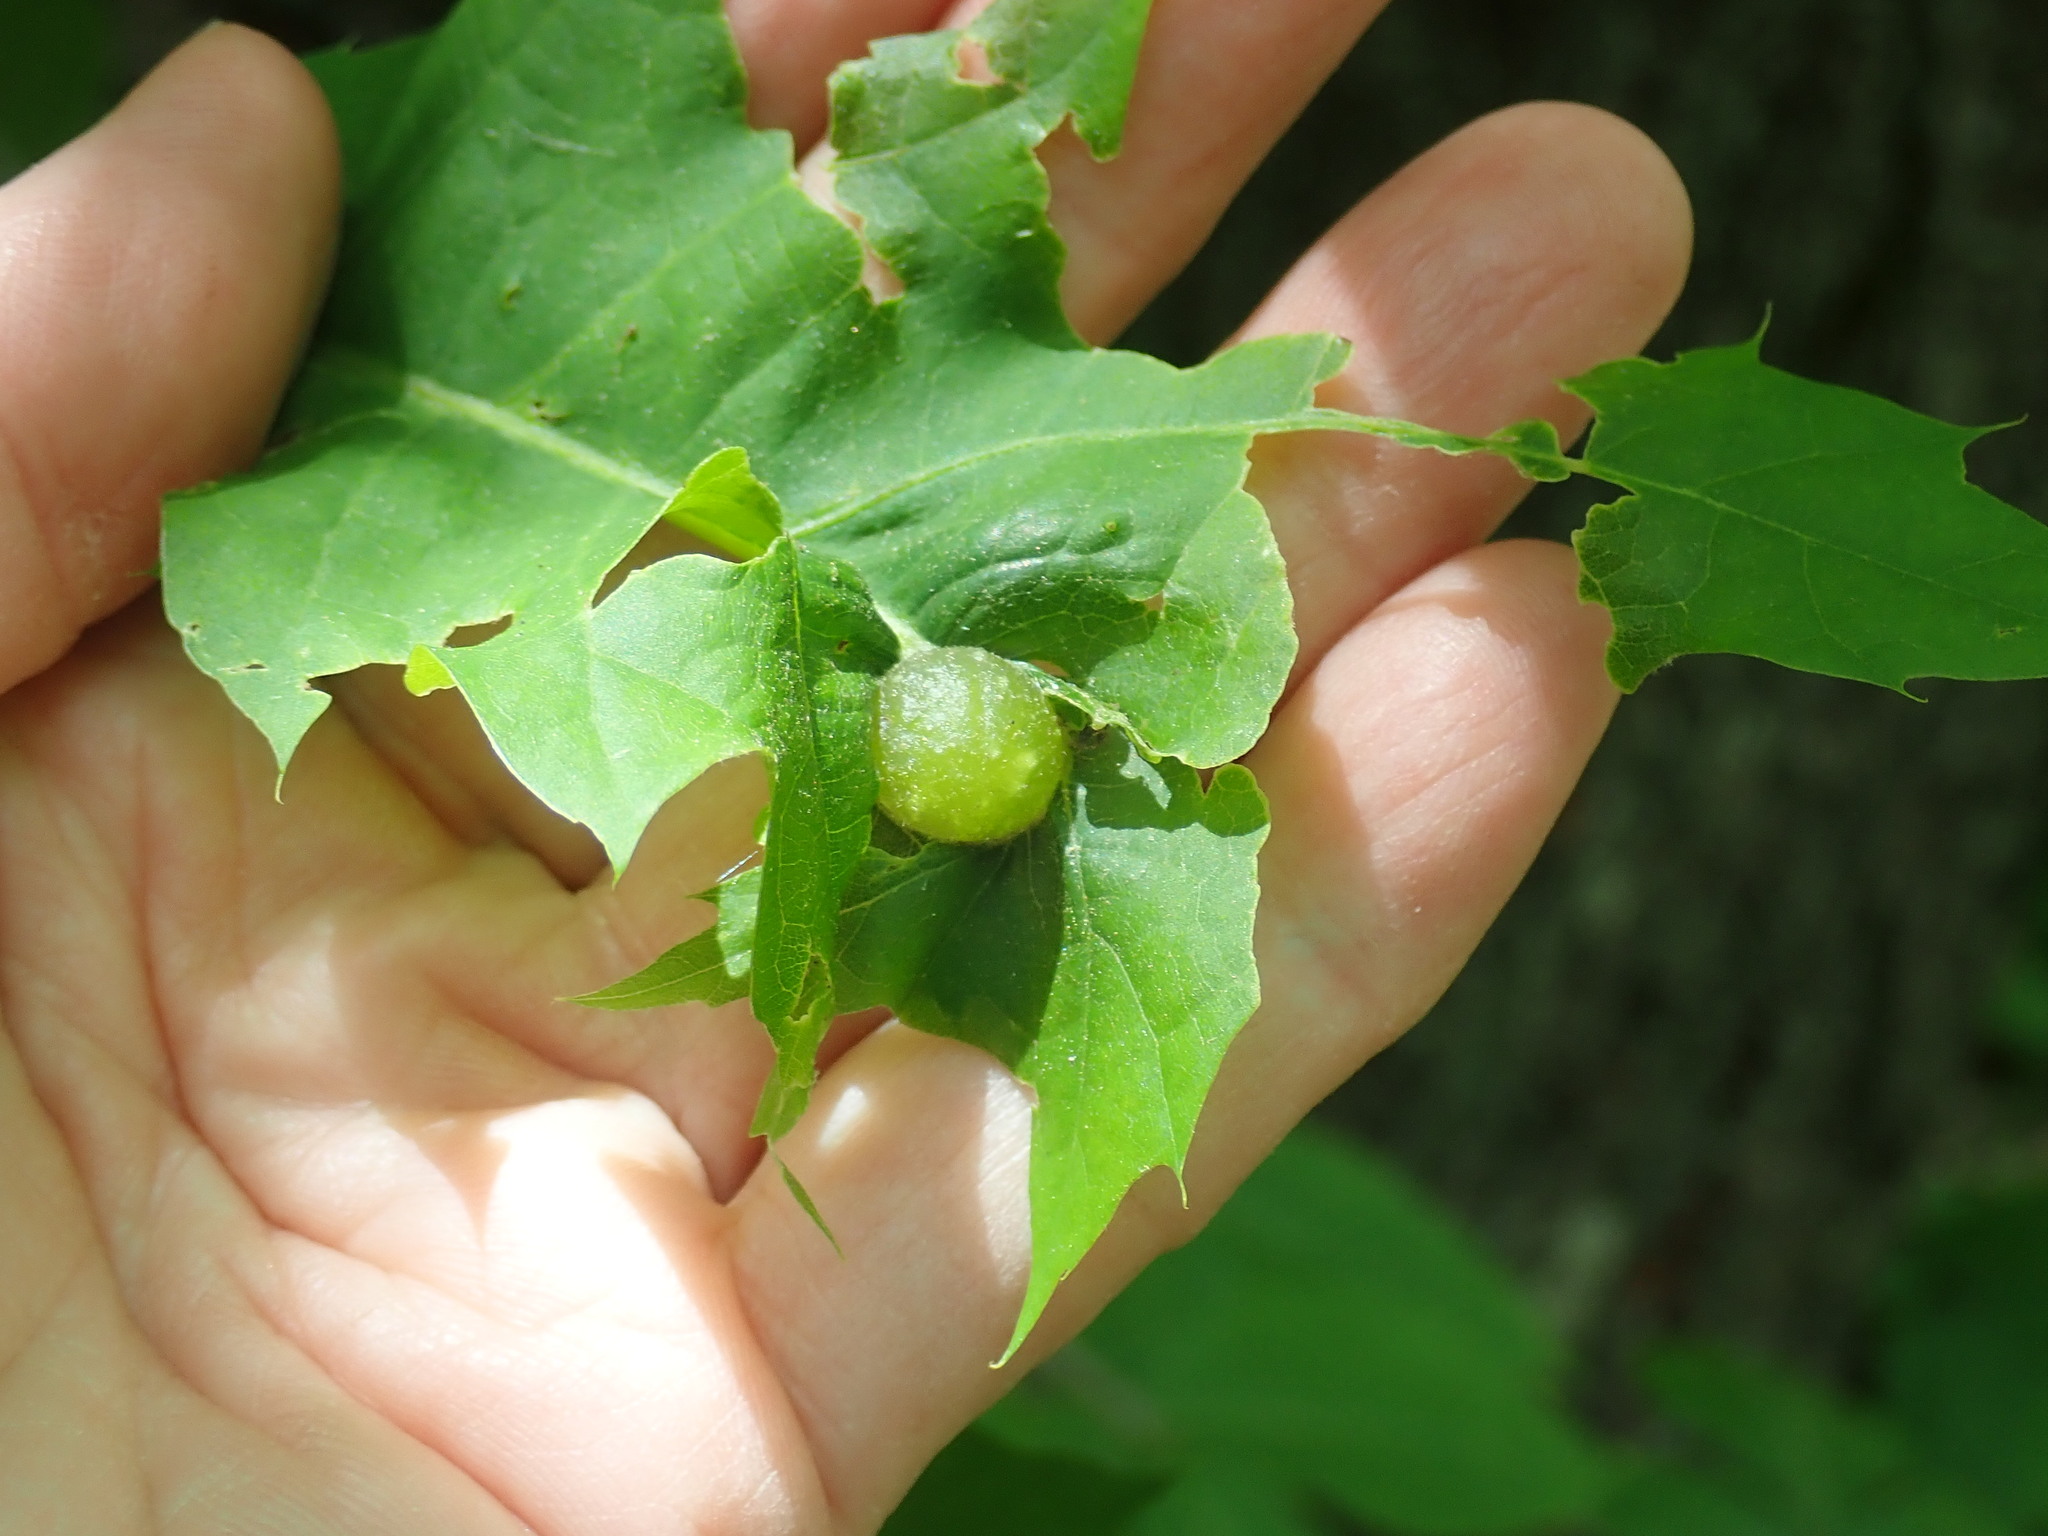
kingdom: Animalia
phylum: Arthropoda
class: Insecta
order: Hymenoptera
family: Cynipidae
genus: Dryocosmus
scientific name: Dryocosmus quercuspalustris
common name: Succulent oak gall wasp
